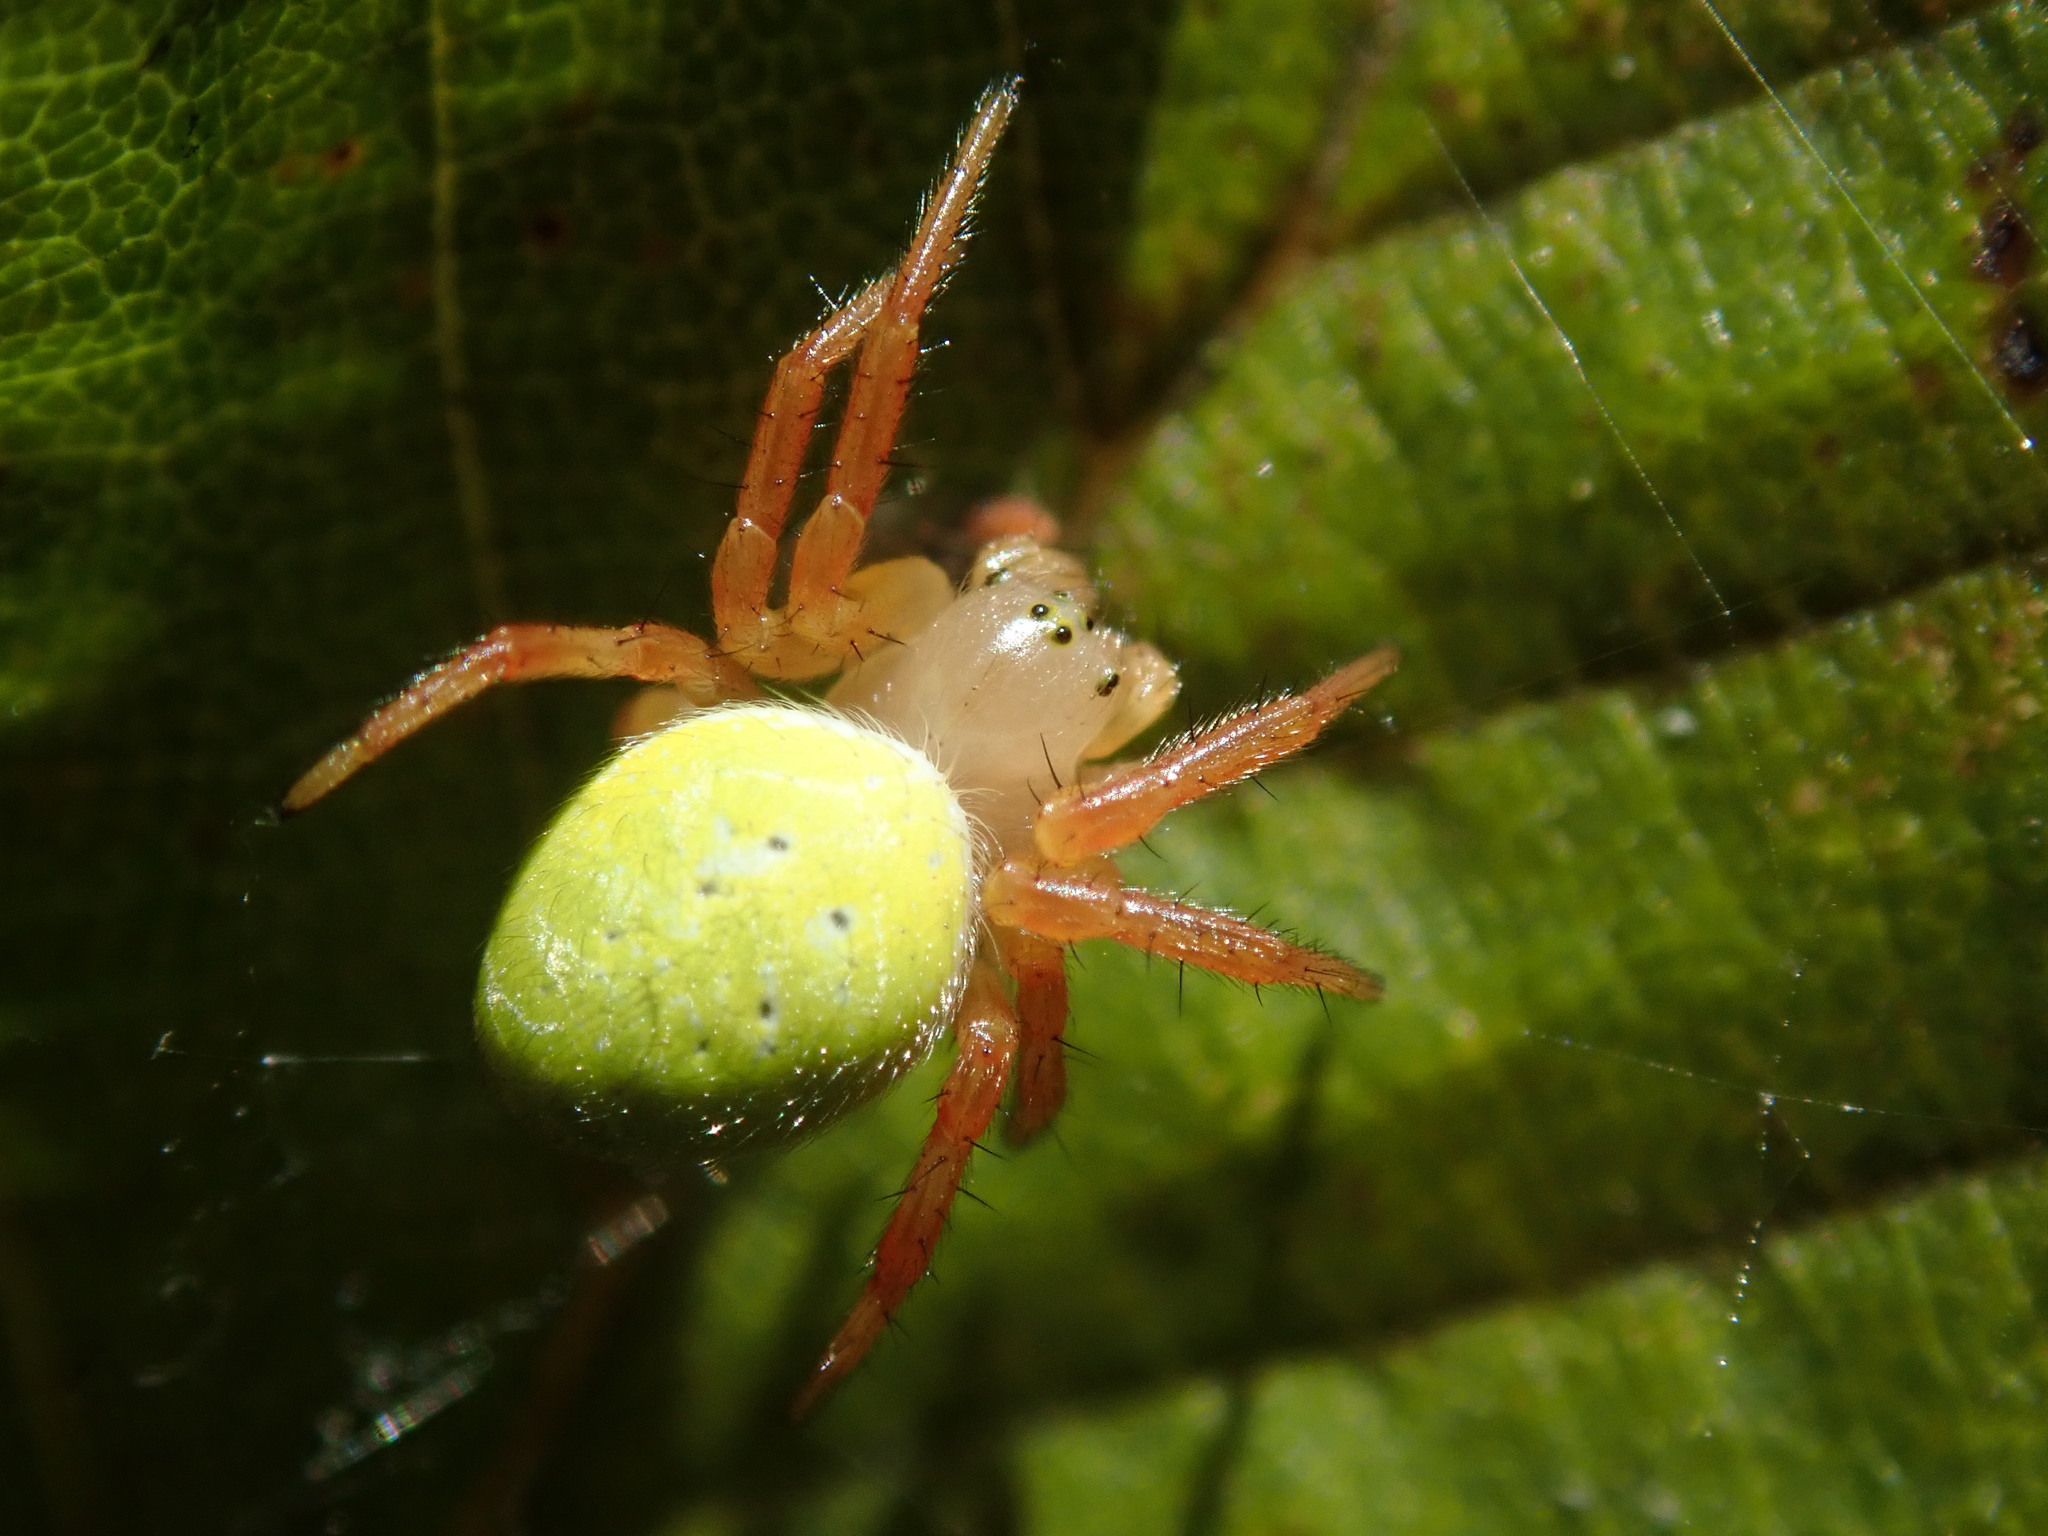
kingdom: Animalia
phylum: Arthropoda
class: Arachnida
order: Araneae
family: Araneidae
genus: Araniella
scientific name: Araniella
